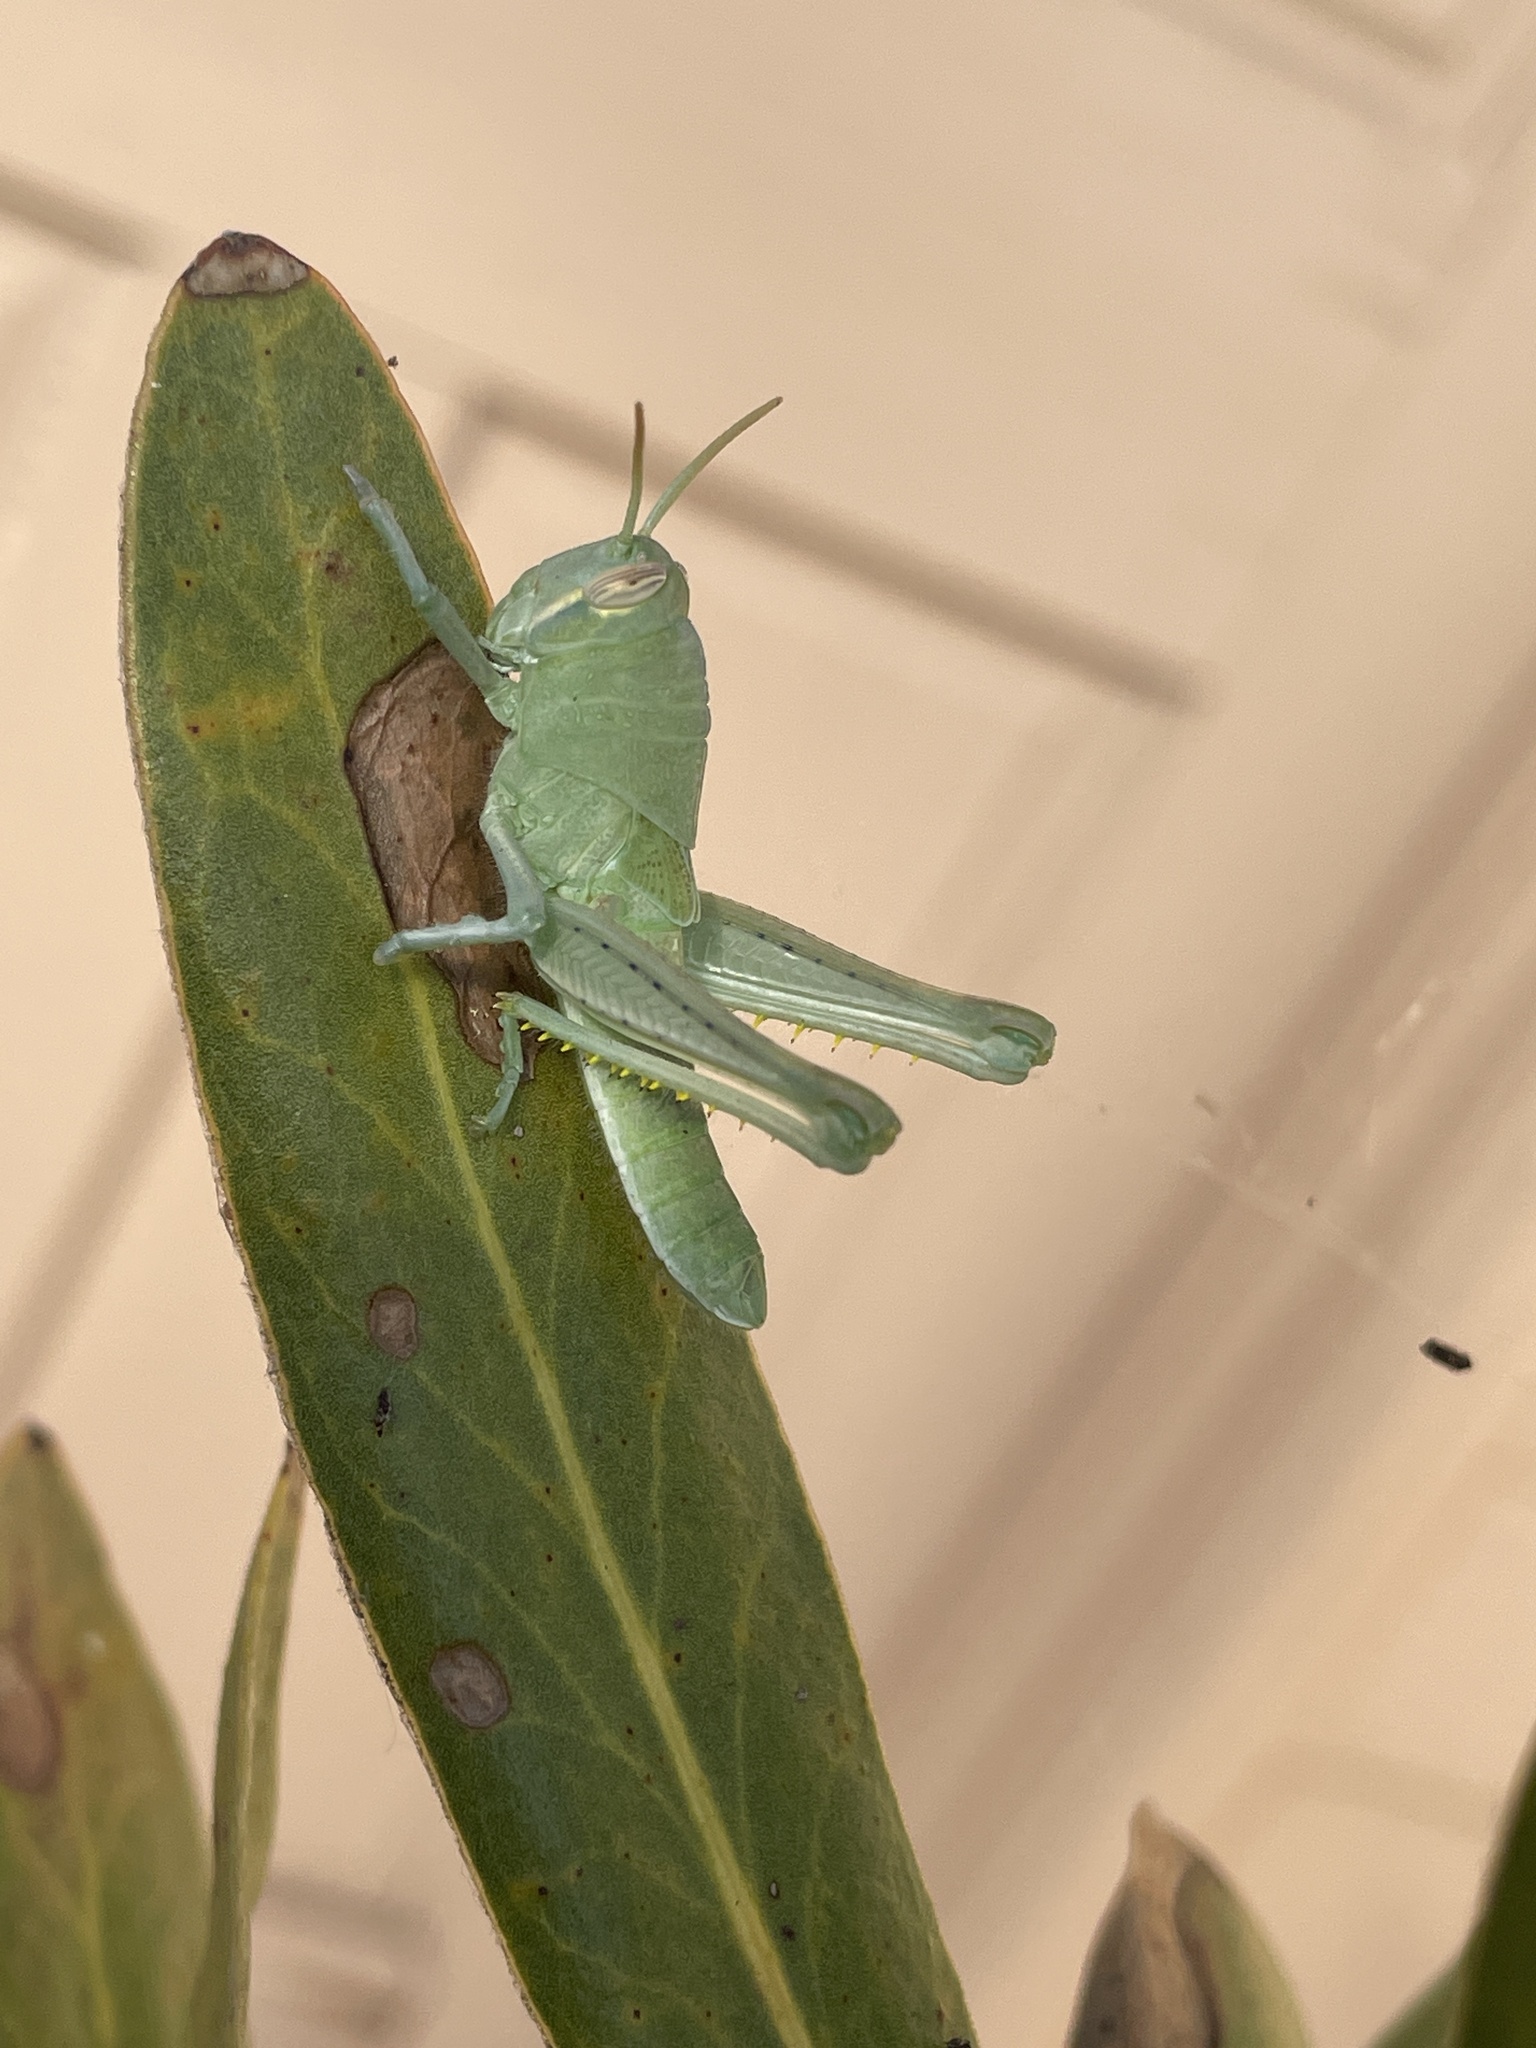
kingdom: Animalia
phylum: Arthropoda
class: Insecta
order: Orthoptera
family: Acrididae
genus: Schistocerca
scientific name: Schistocerca nitens
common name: Vagrant grasshopper
